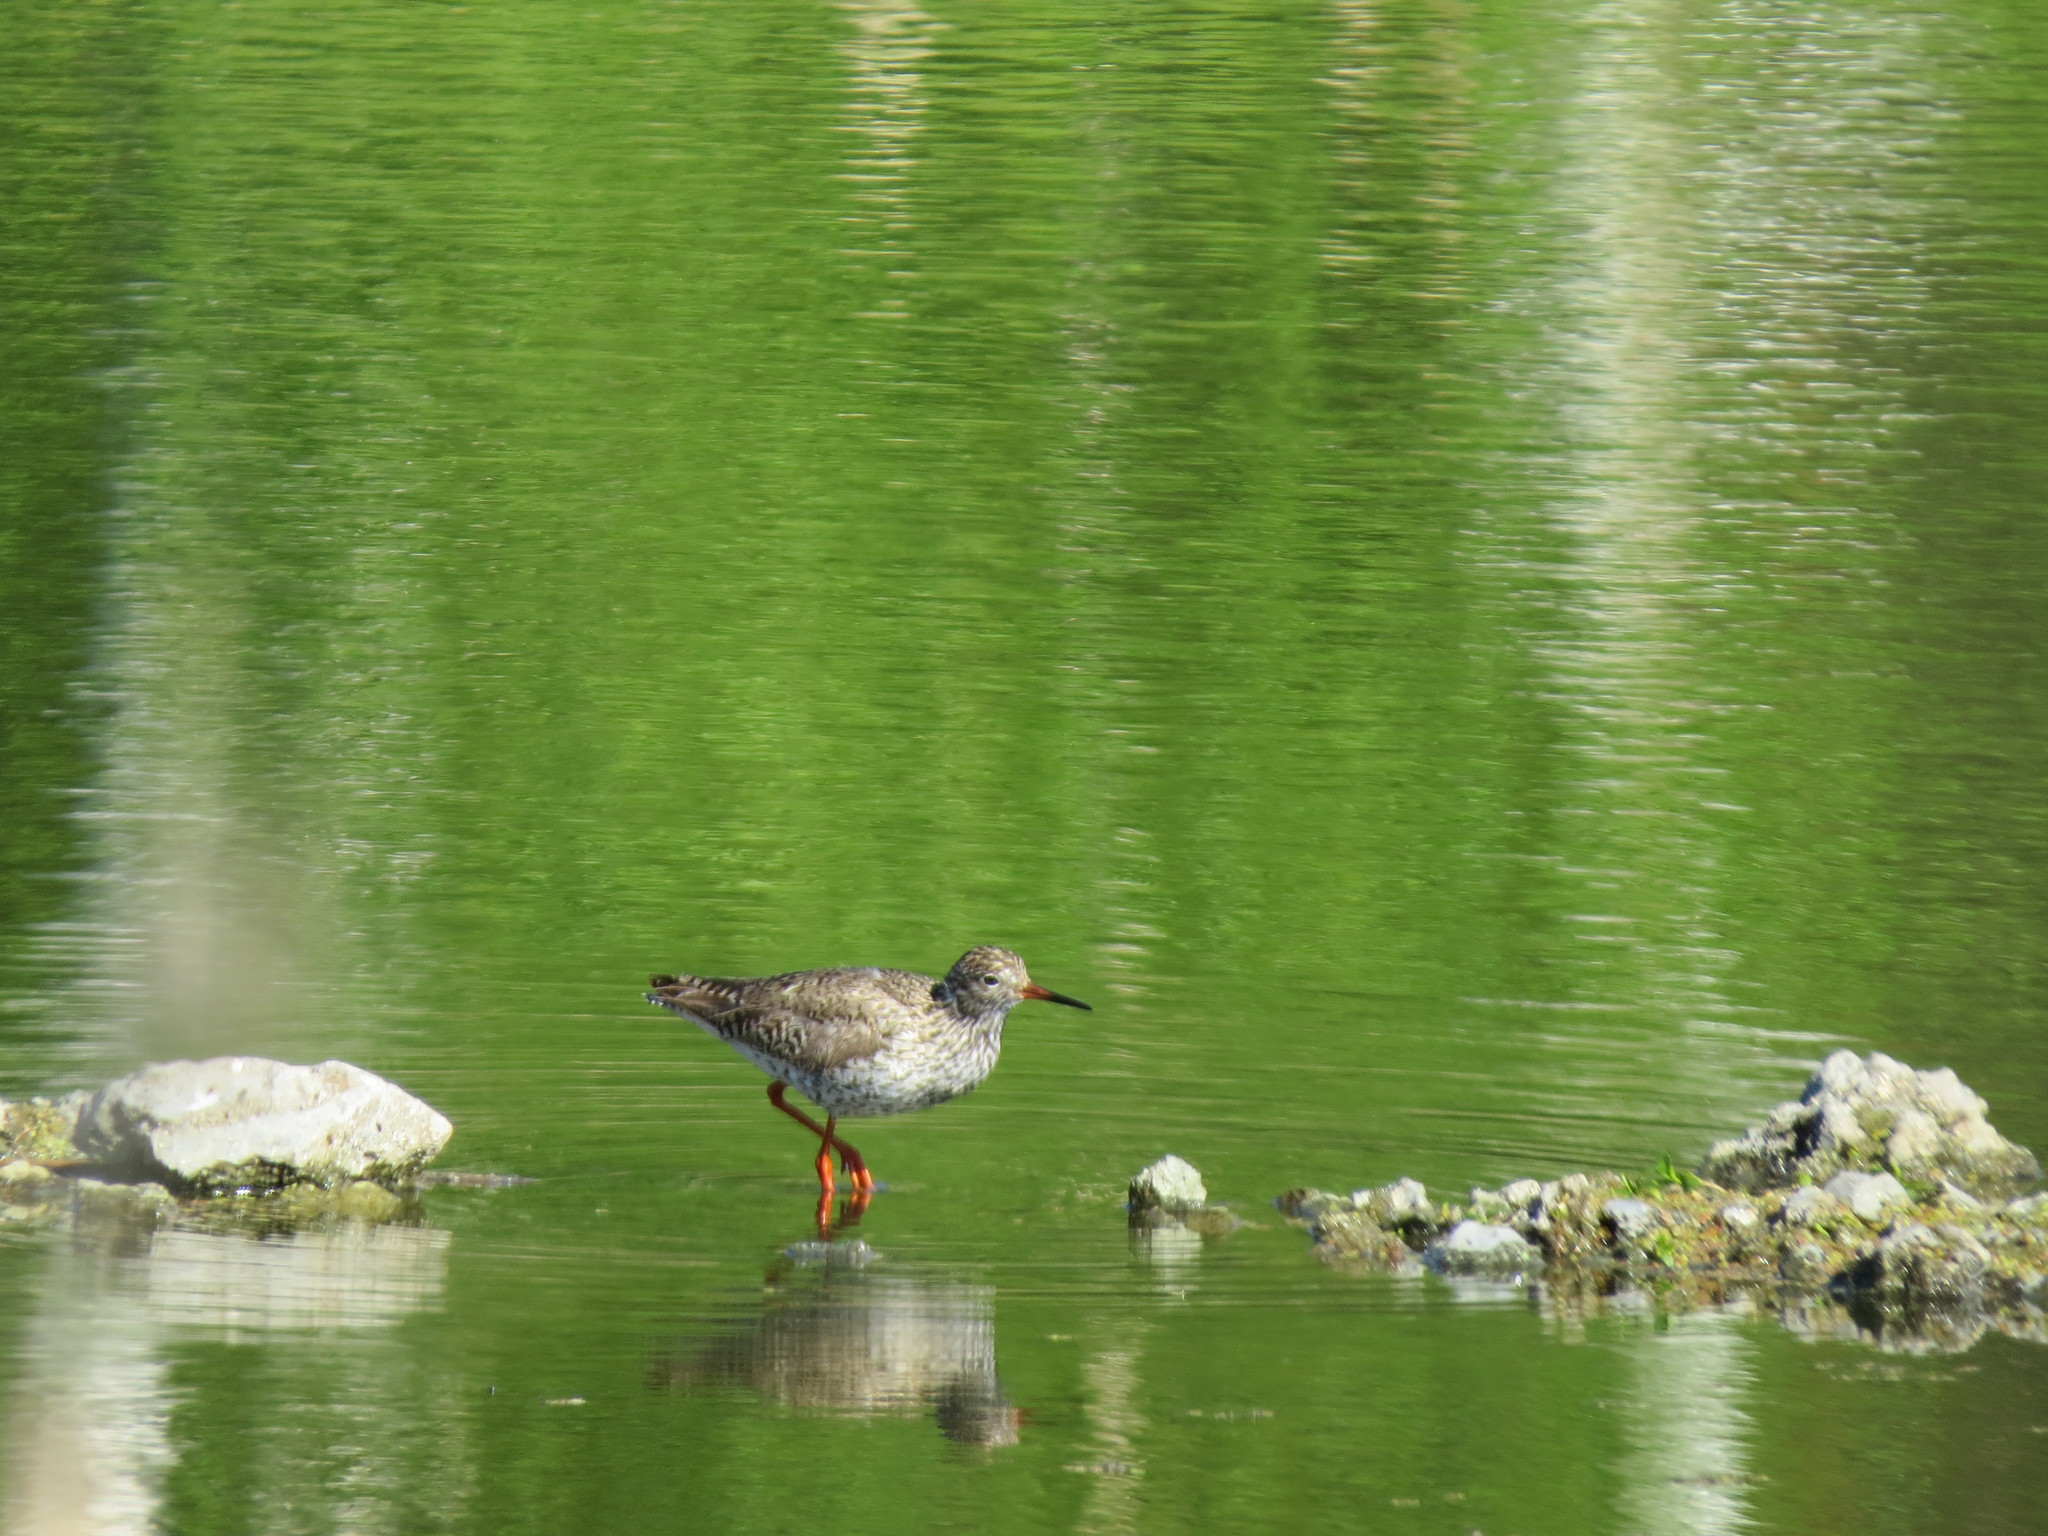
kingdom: Animalia
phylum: Chordata
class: Aves
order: Charadriiformes
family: Scolopacidae
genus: Tringa
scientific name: Tringa totanus
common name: Common redshank
